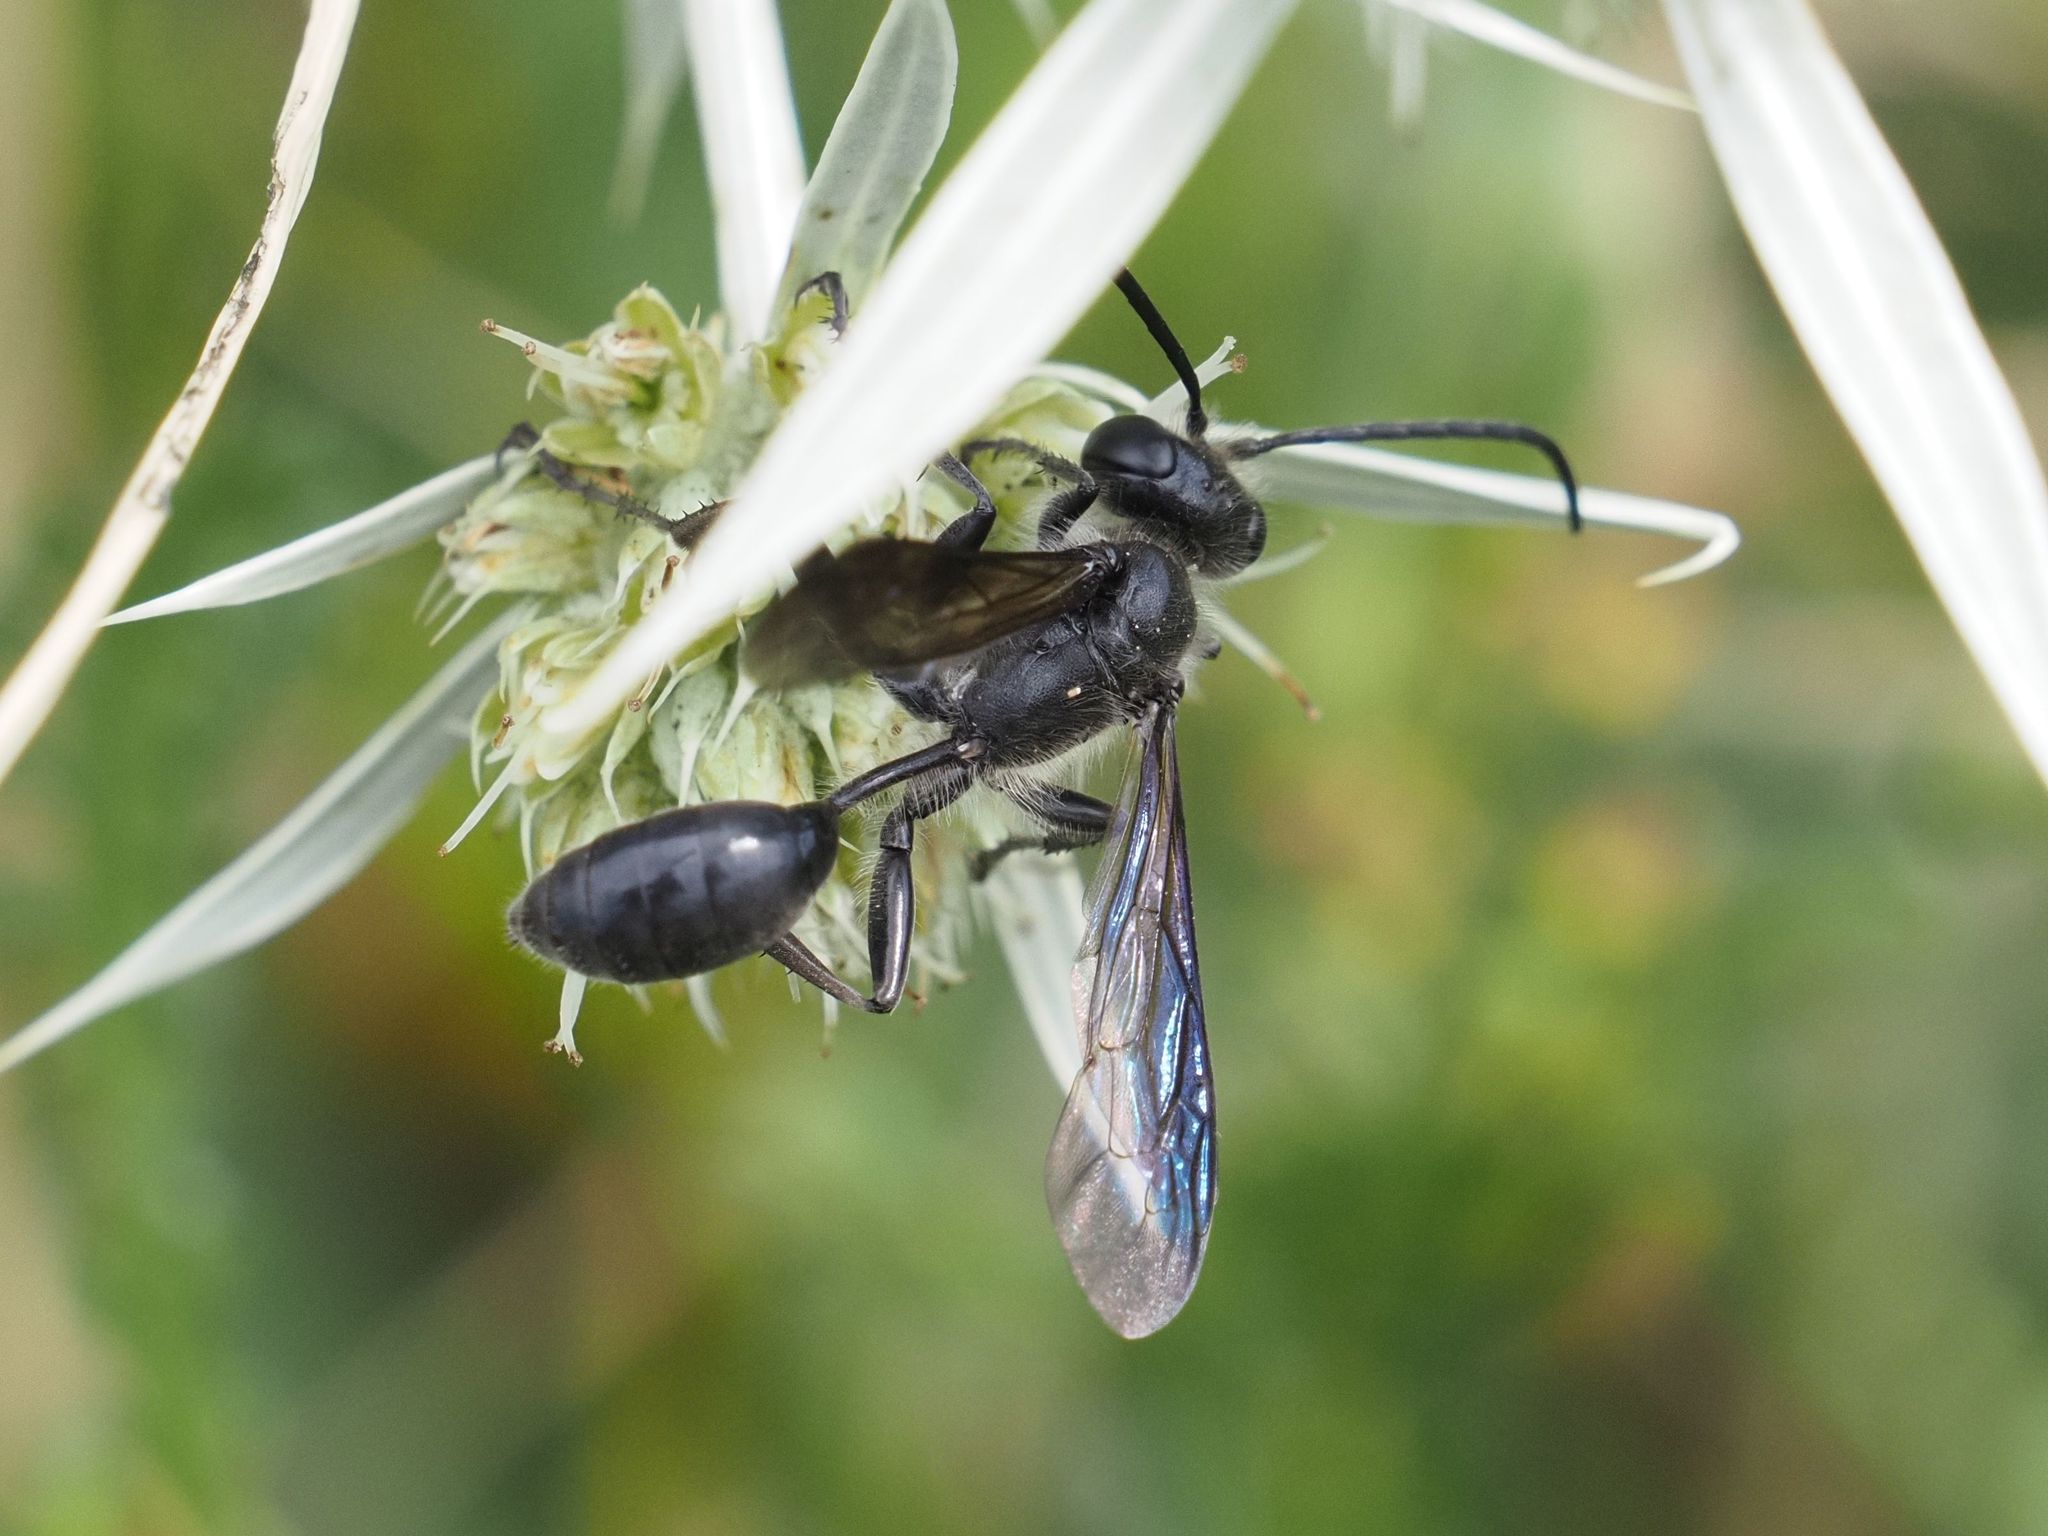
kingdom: Animalia
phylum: Arthropoda
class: Insecta
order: Hymenoptera
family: Sphecidae
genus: Isodontia
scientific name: Isodontia mexicana
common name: Mud dauber
